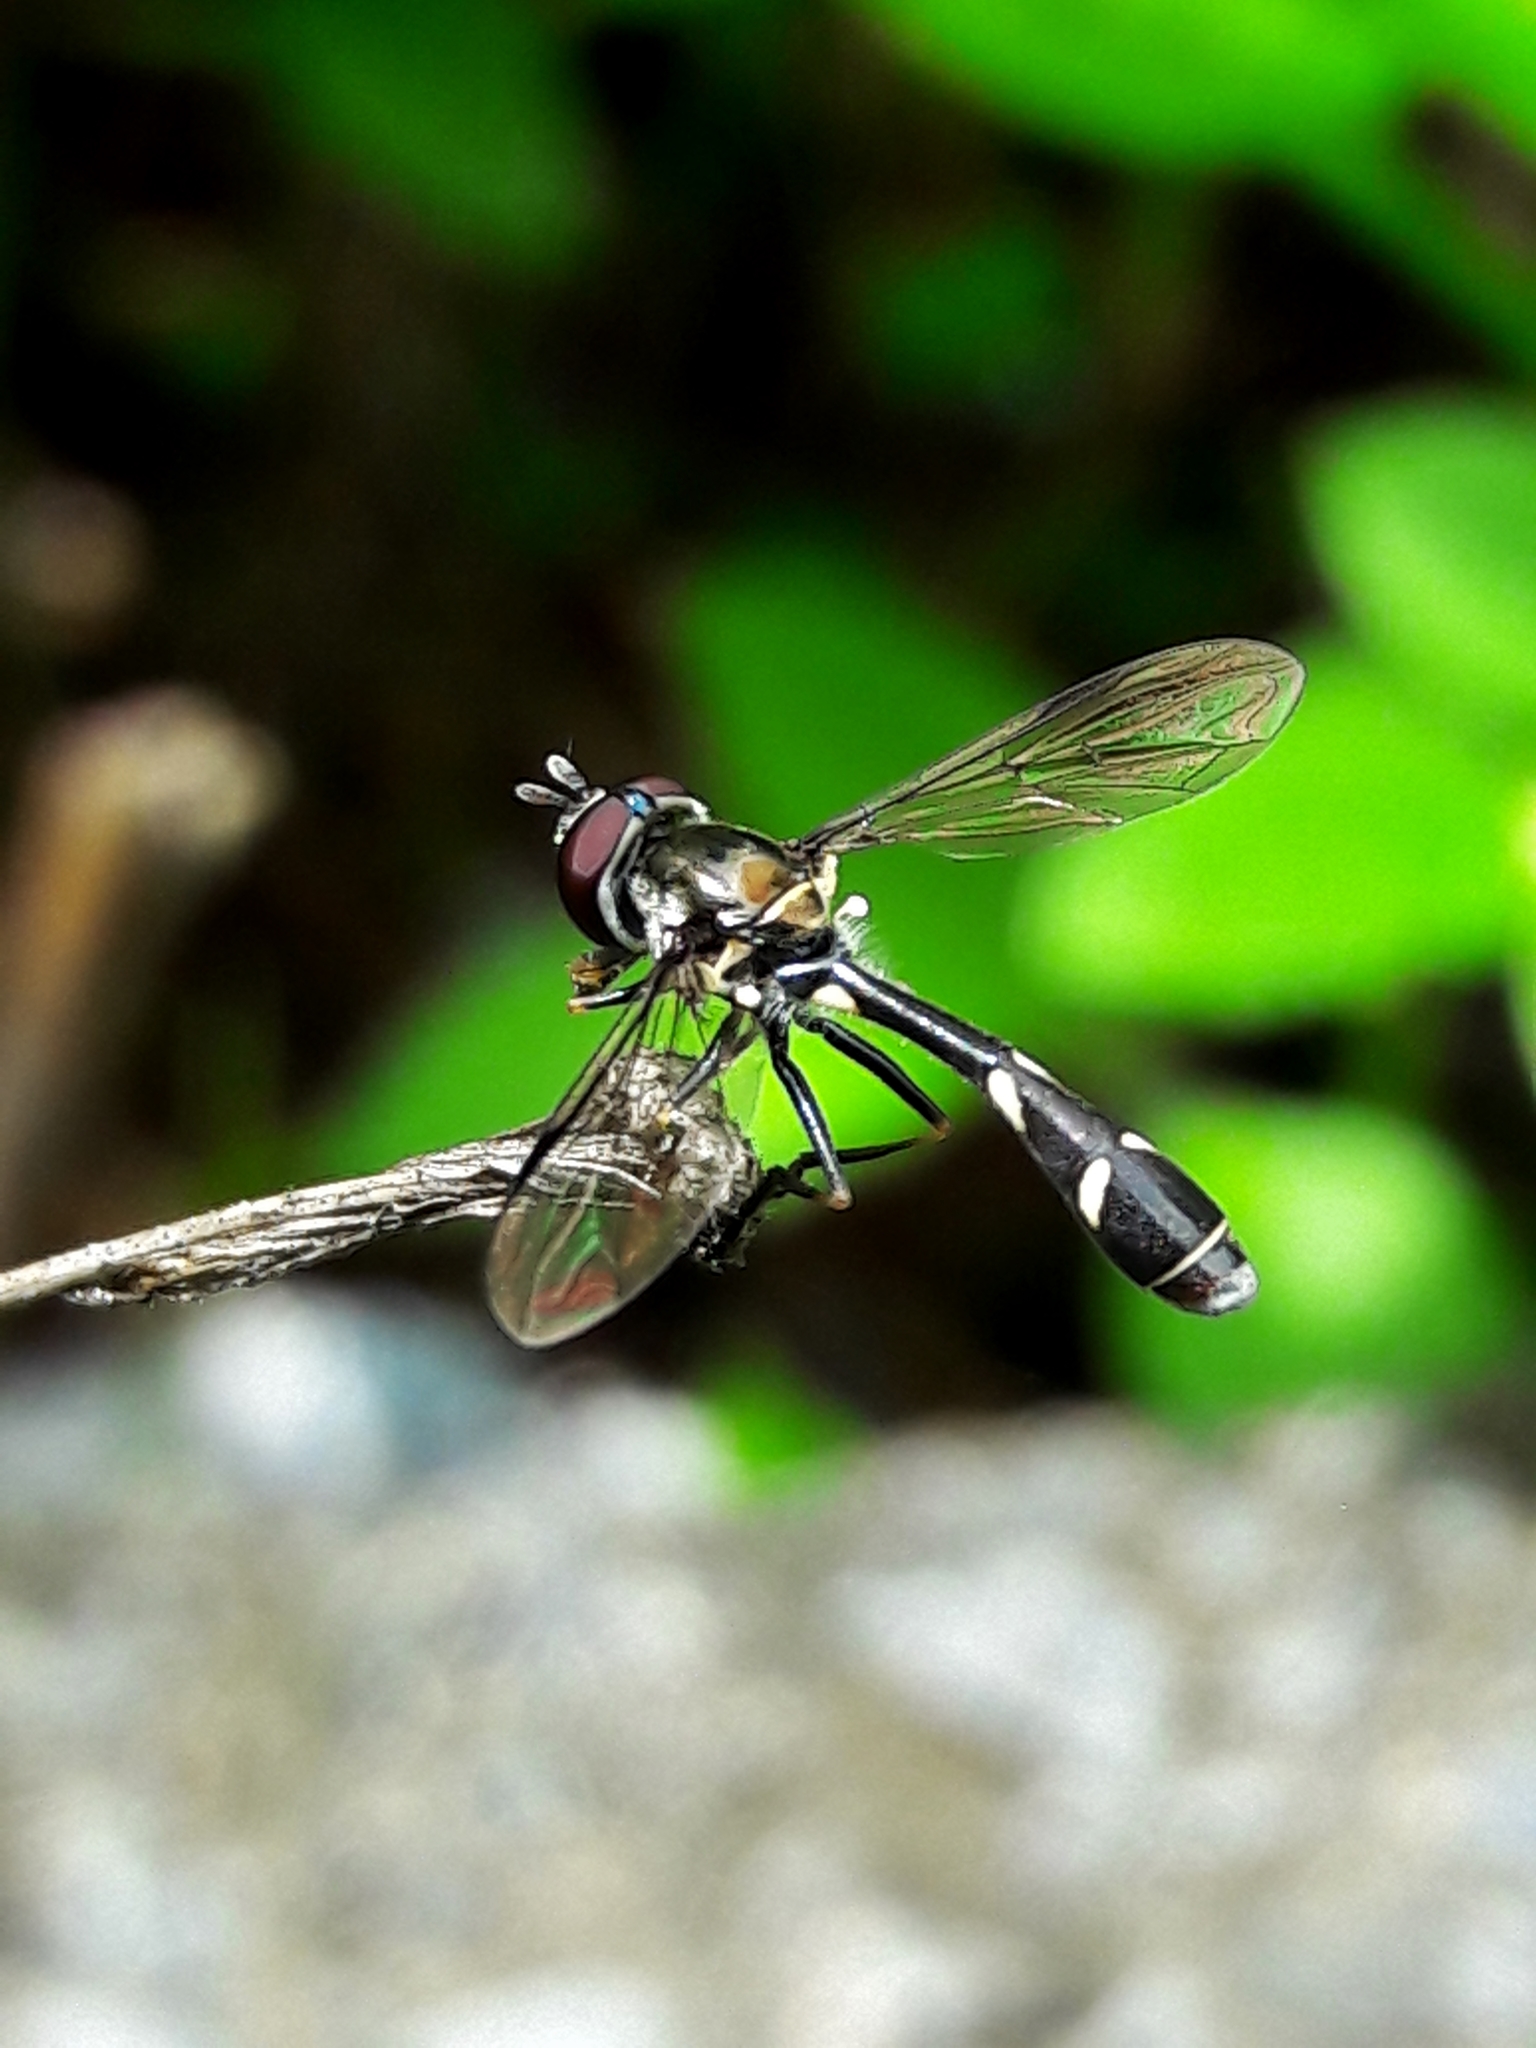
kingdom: Animalia
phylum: Arthropoda
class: Insecta
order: Diptera
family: Syrphidae
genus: Dioprosopa
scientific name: Dioprosopa clavatus
